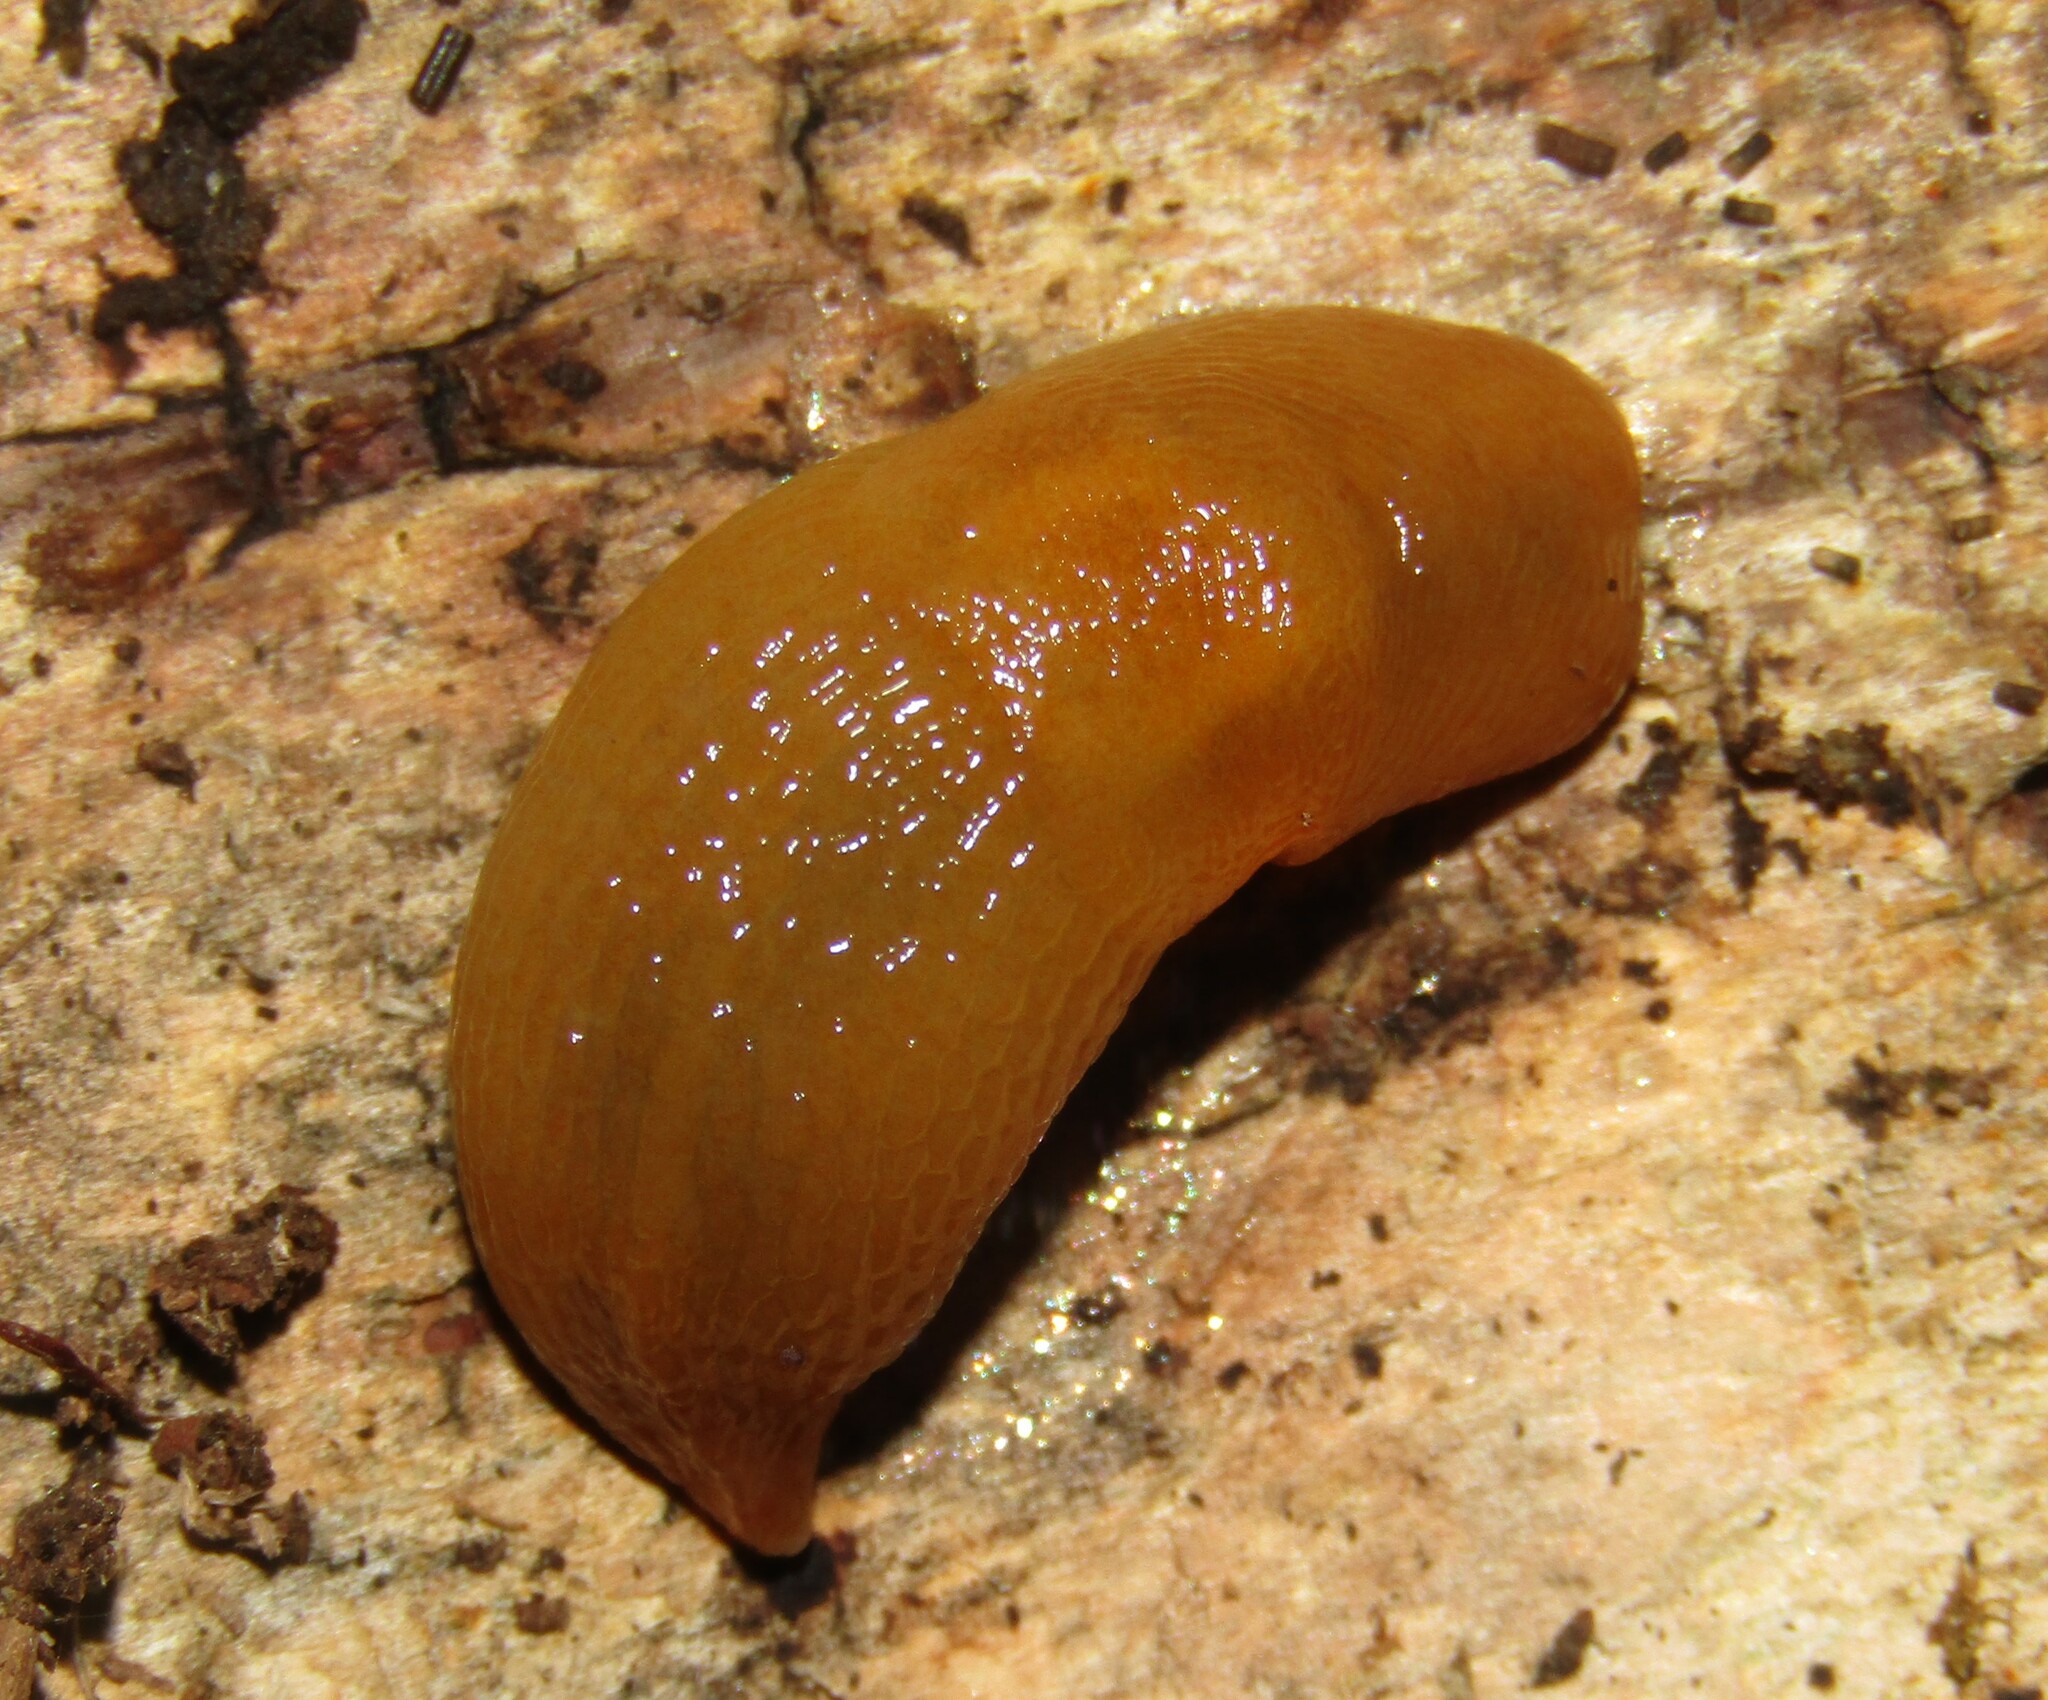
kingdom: Animalia
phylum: Mollusca
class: Gastropoda
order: Stylommatophora
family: Limacidae
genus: Malacolimax
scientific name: Malacolimax tenellus
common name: Lemon slug
